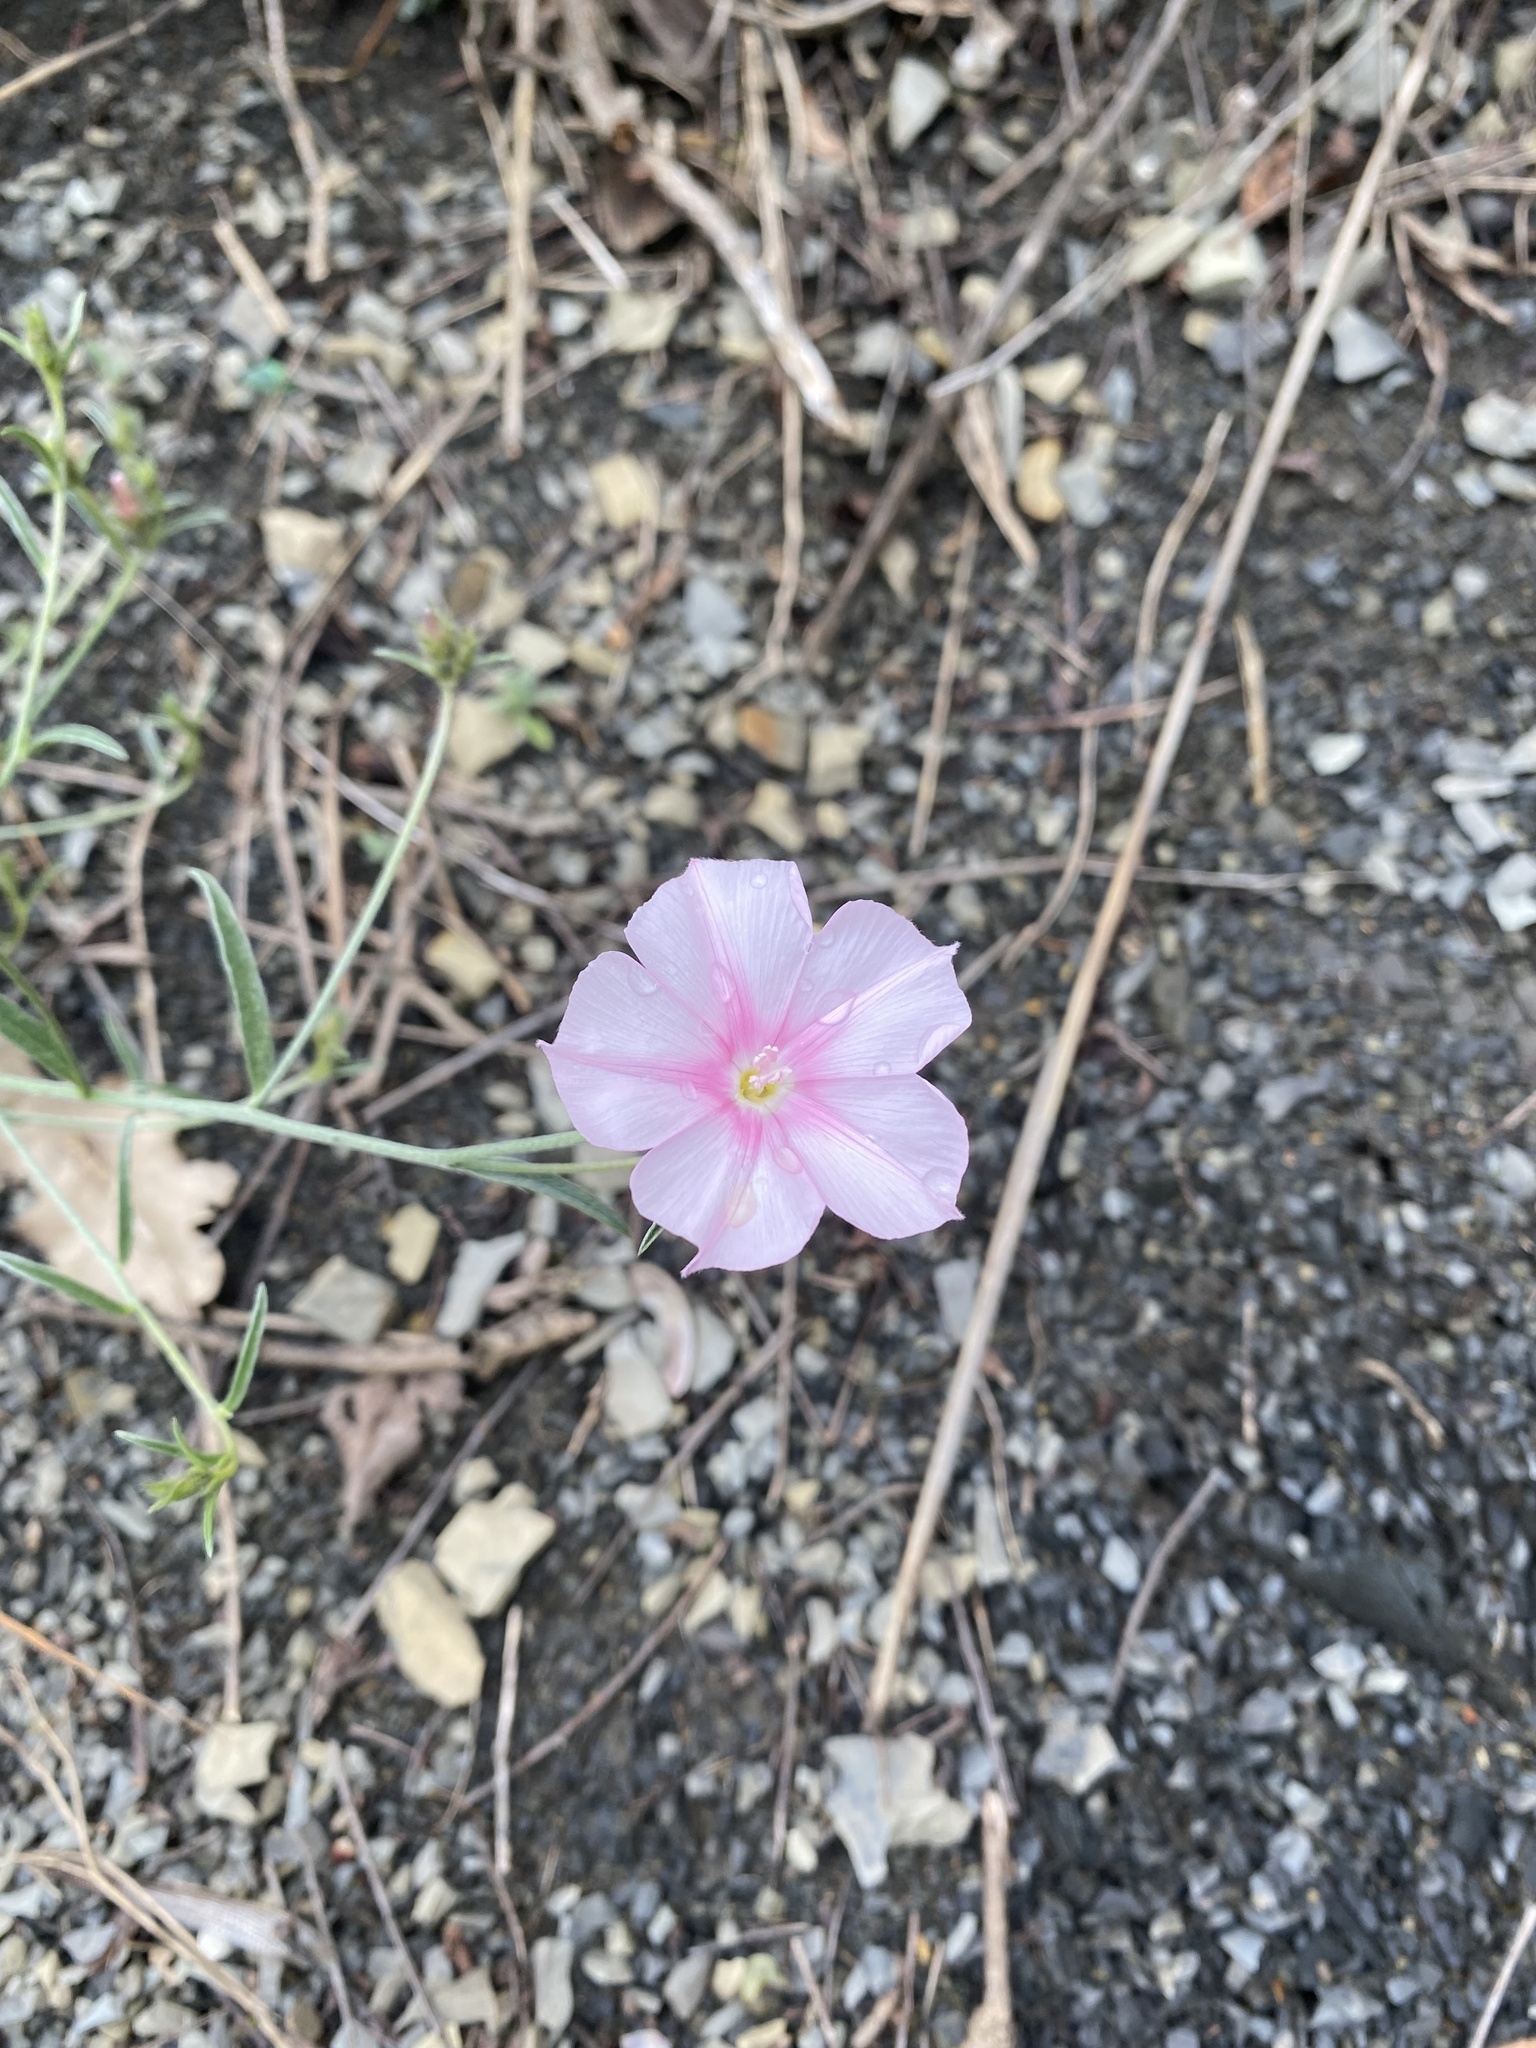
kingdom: Plantae
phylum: Tracheophyta
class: Magnoliopsida
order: Solanales
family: Convolvulaceae
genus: Convolvulus
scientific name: Convolvulus cantabrica
